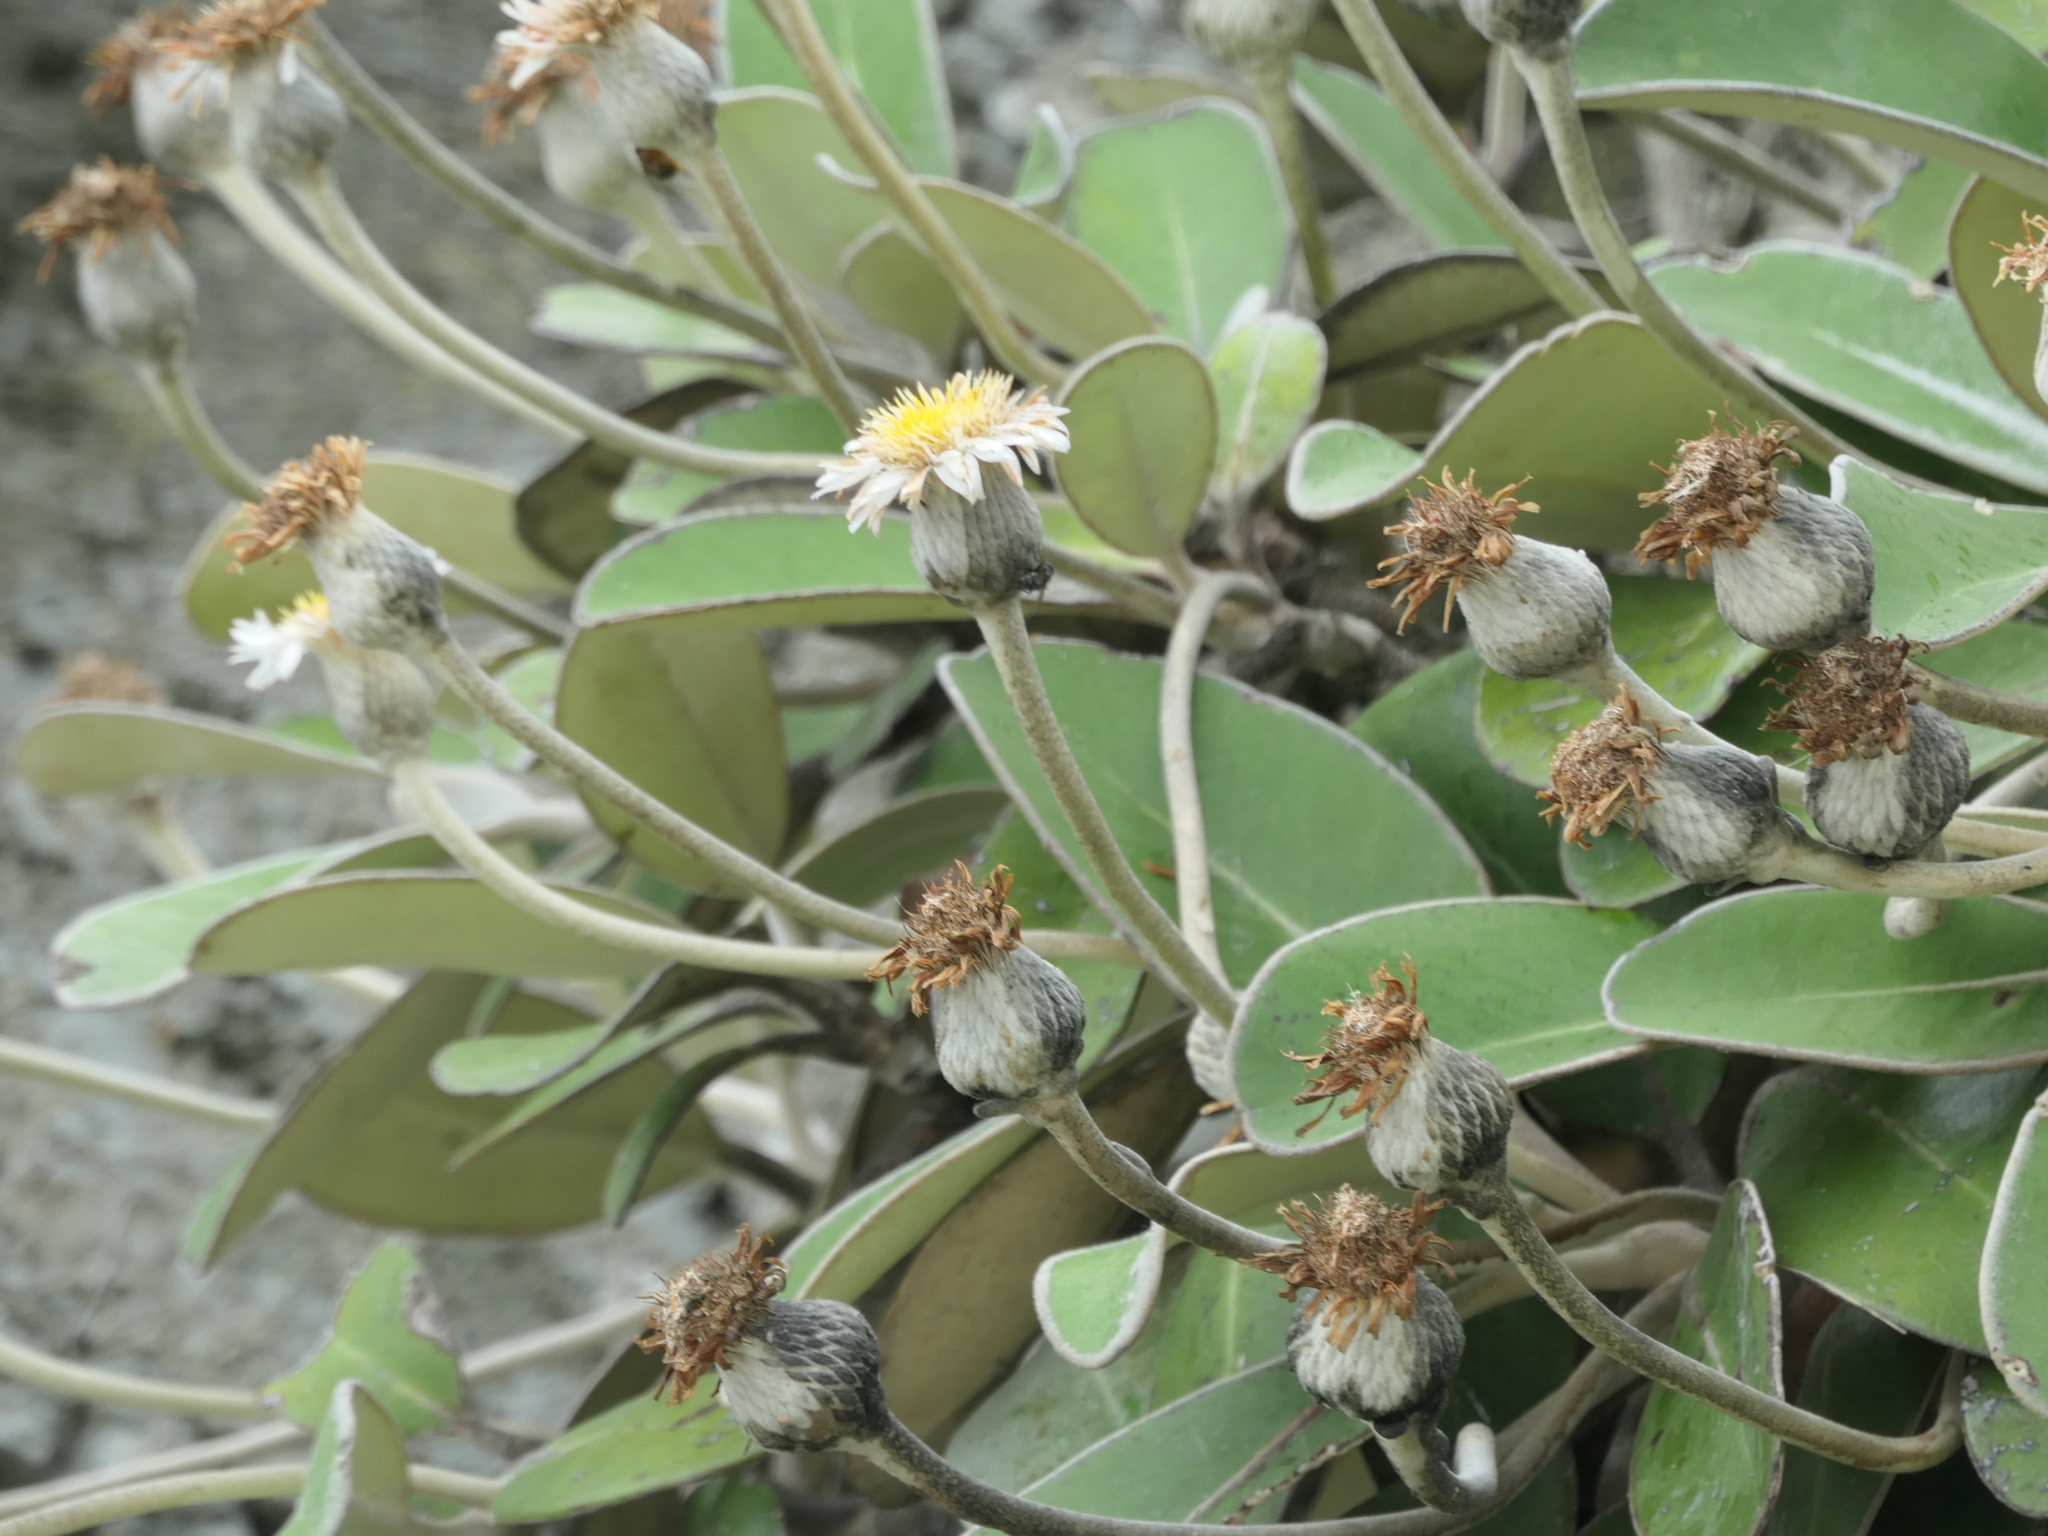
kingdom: Plantae
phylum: Tracheophyta
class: Magnoliopsida
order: Asterales
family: Asteraceae
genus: Pachystegia
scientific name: Pachystegia insignis
